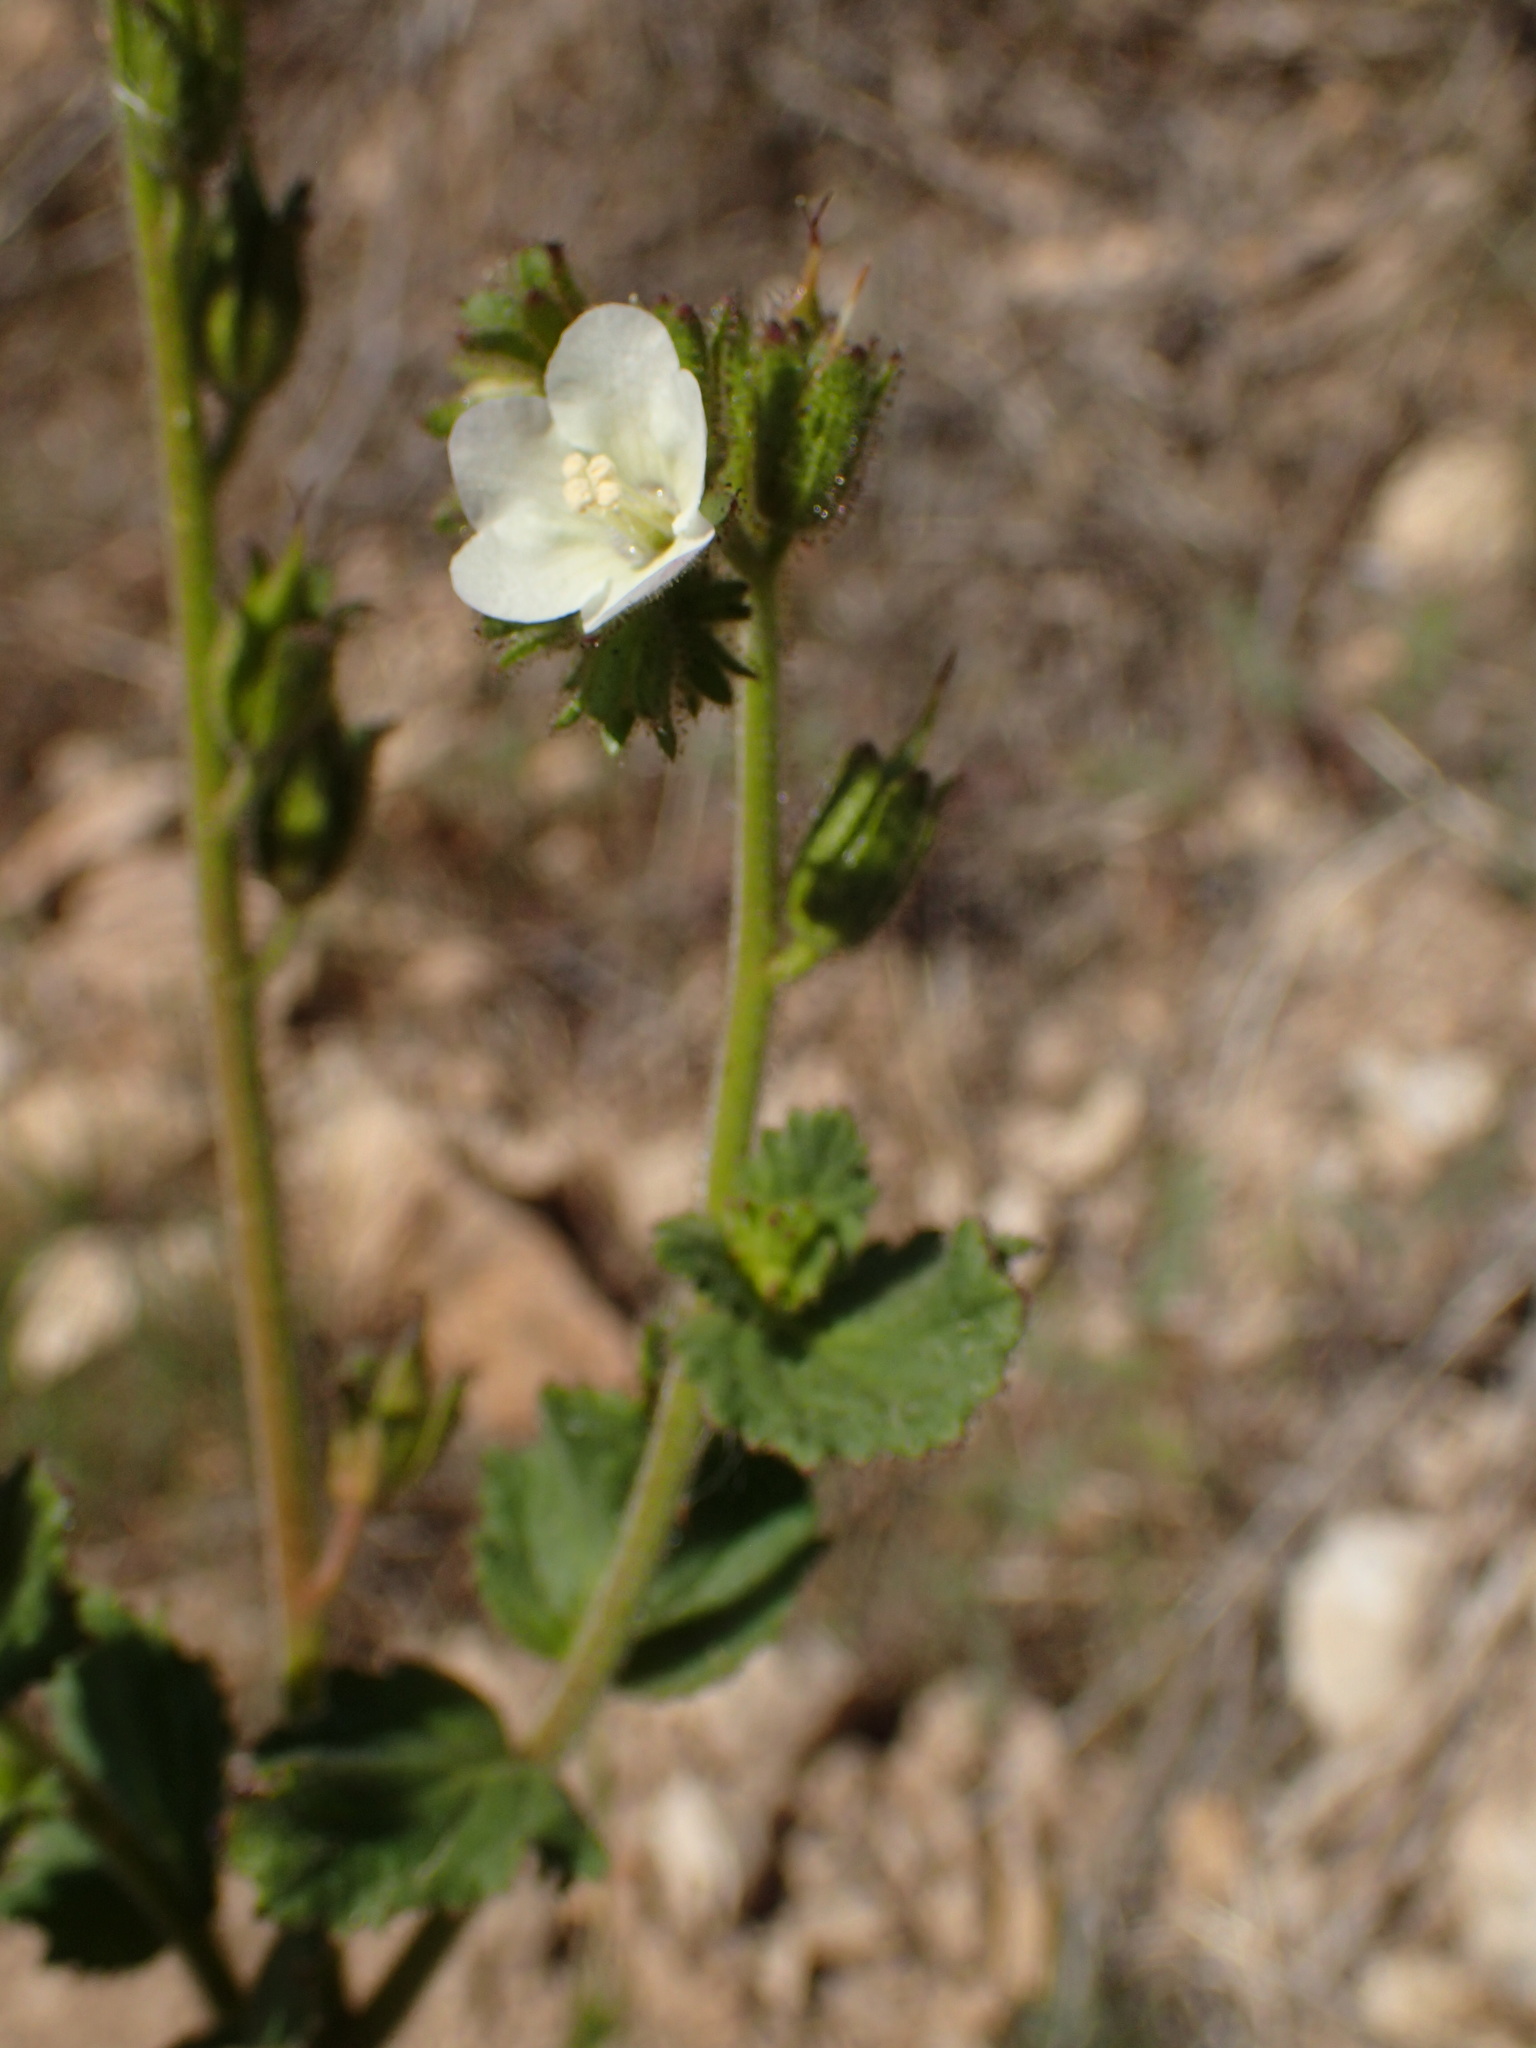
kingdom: Plantae
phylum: Tracheophyta
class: Magnoliopsida
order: Boraginales
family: Hydrophyllaceae
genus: Phacelia
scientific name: Phacelia viscida
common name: Sticky phacelia
